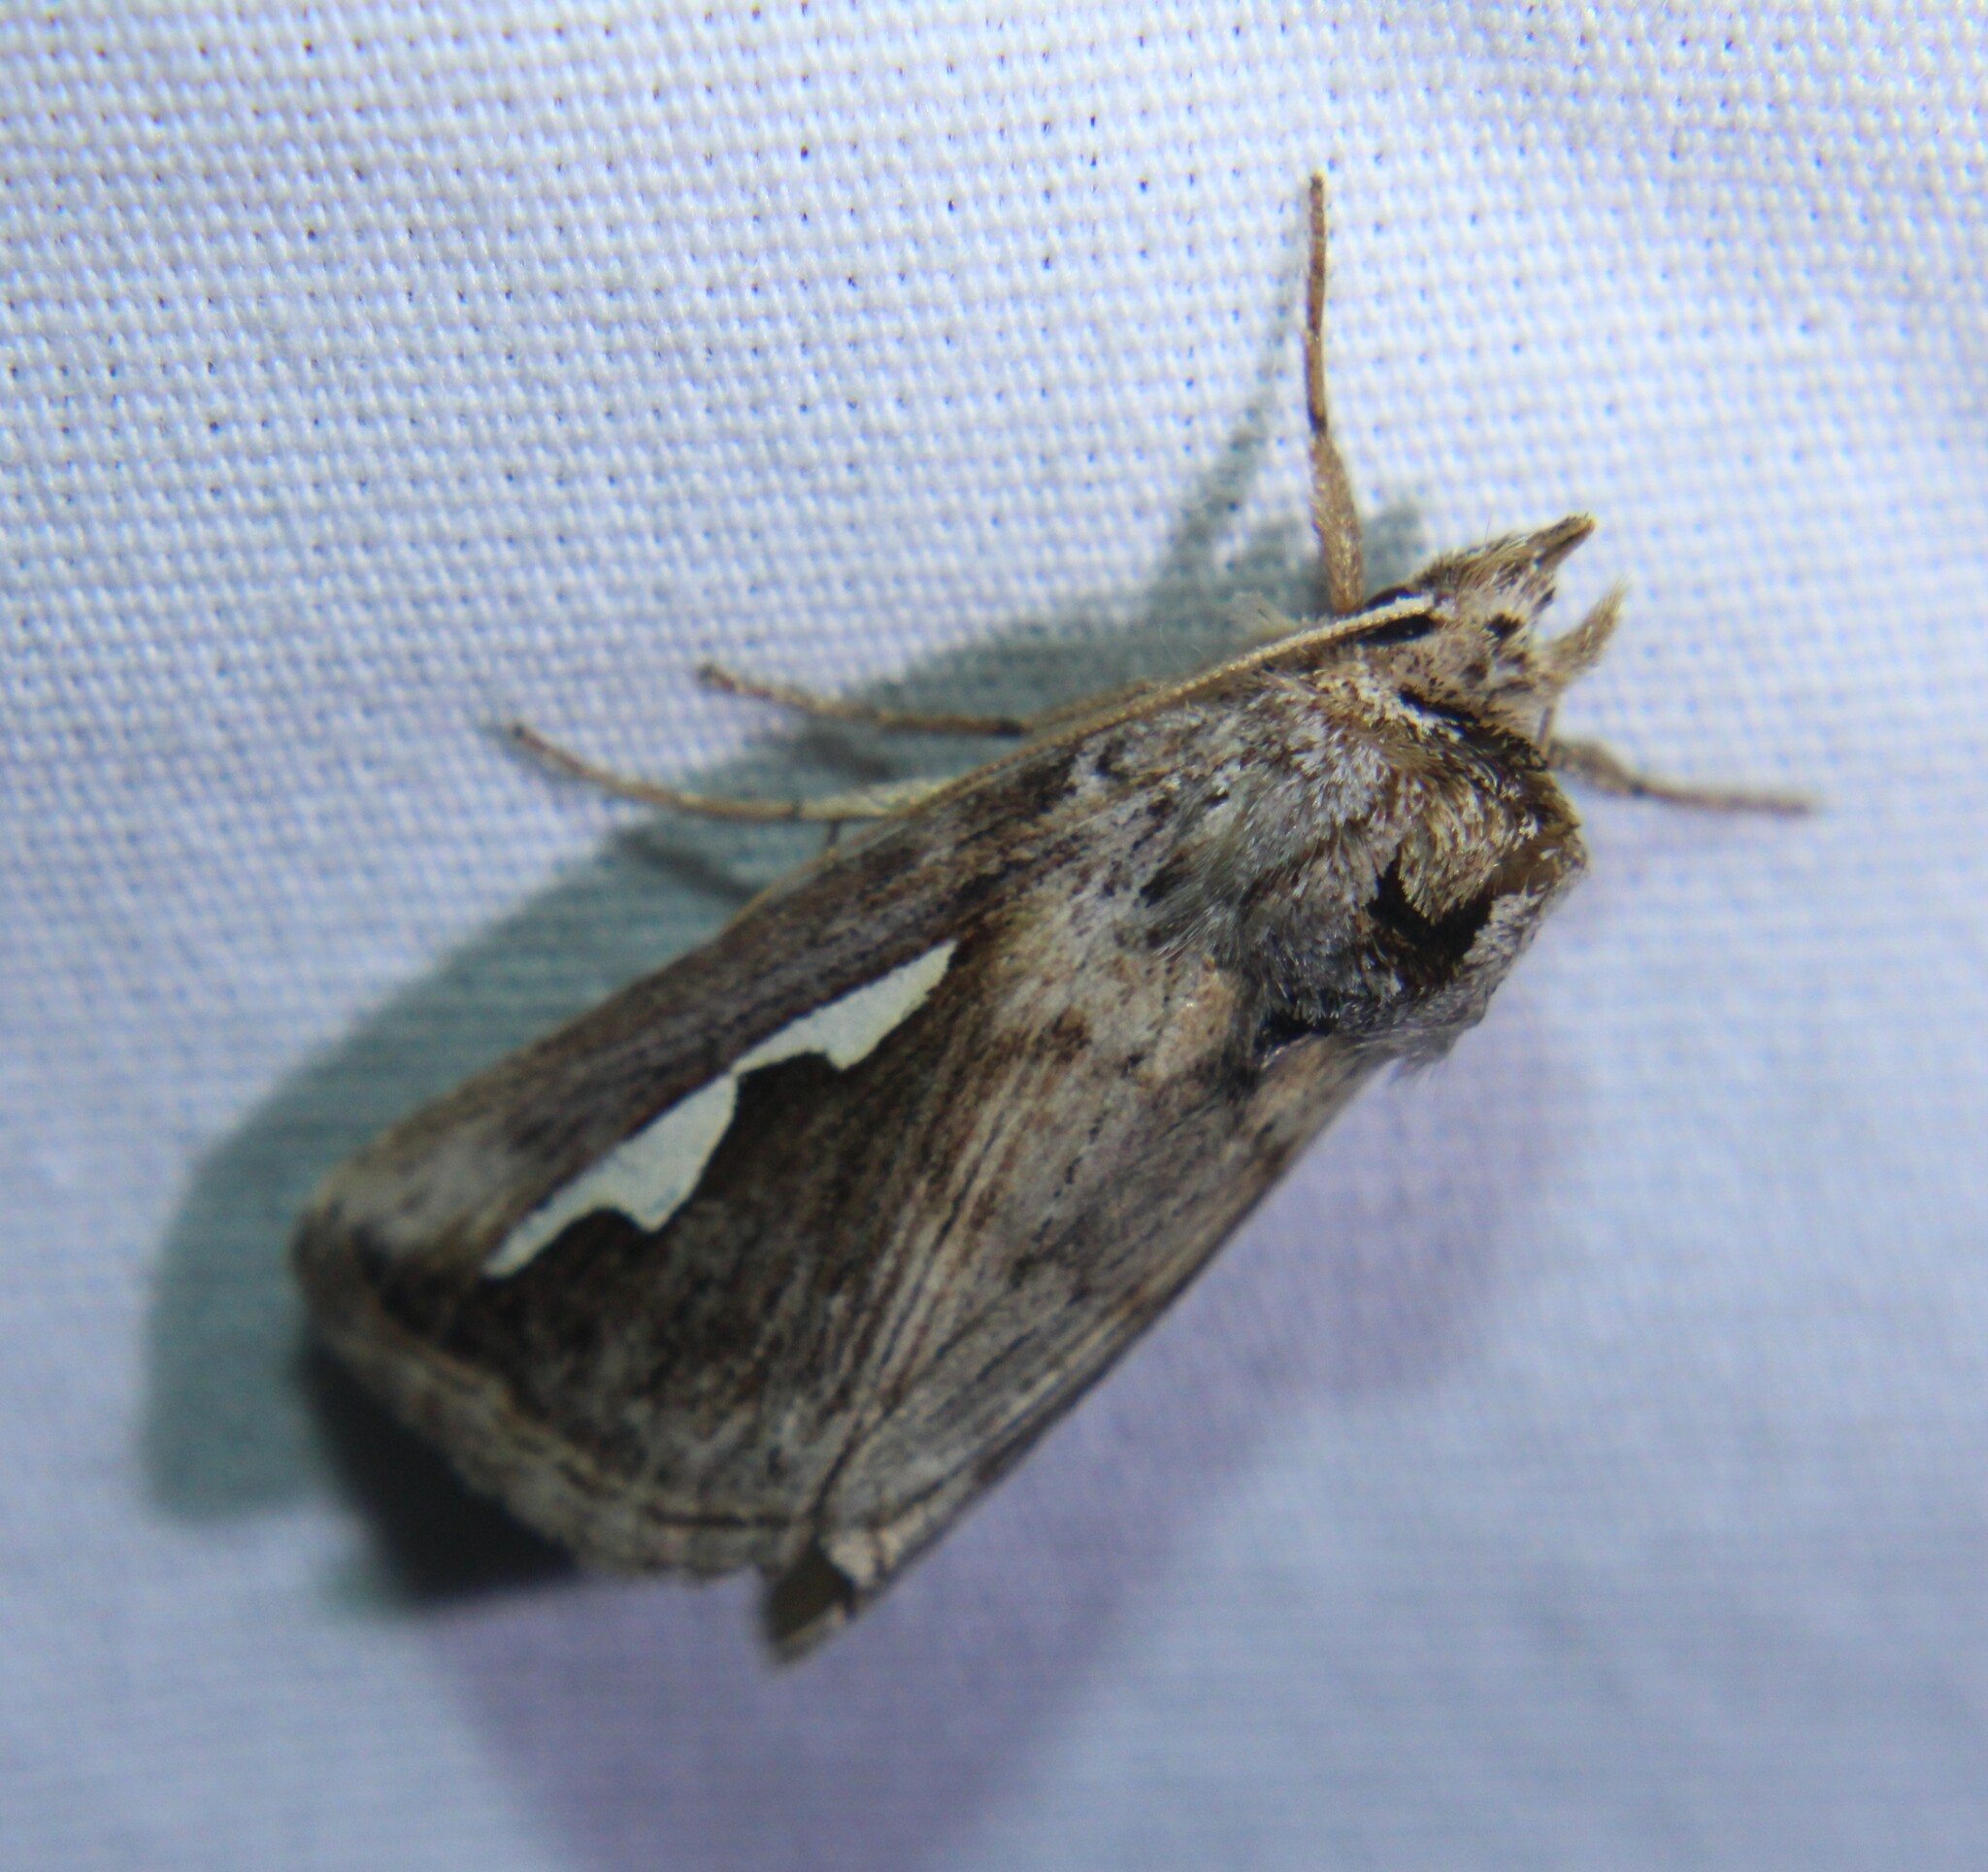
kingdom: Animalia
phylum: Arthropoda
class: Insecta
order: Lepidoptera
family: Notodontidae
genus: Didugua
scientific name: Didugua argentilinea
